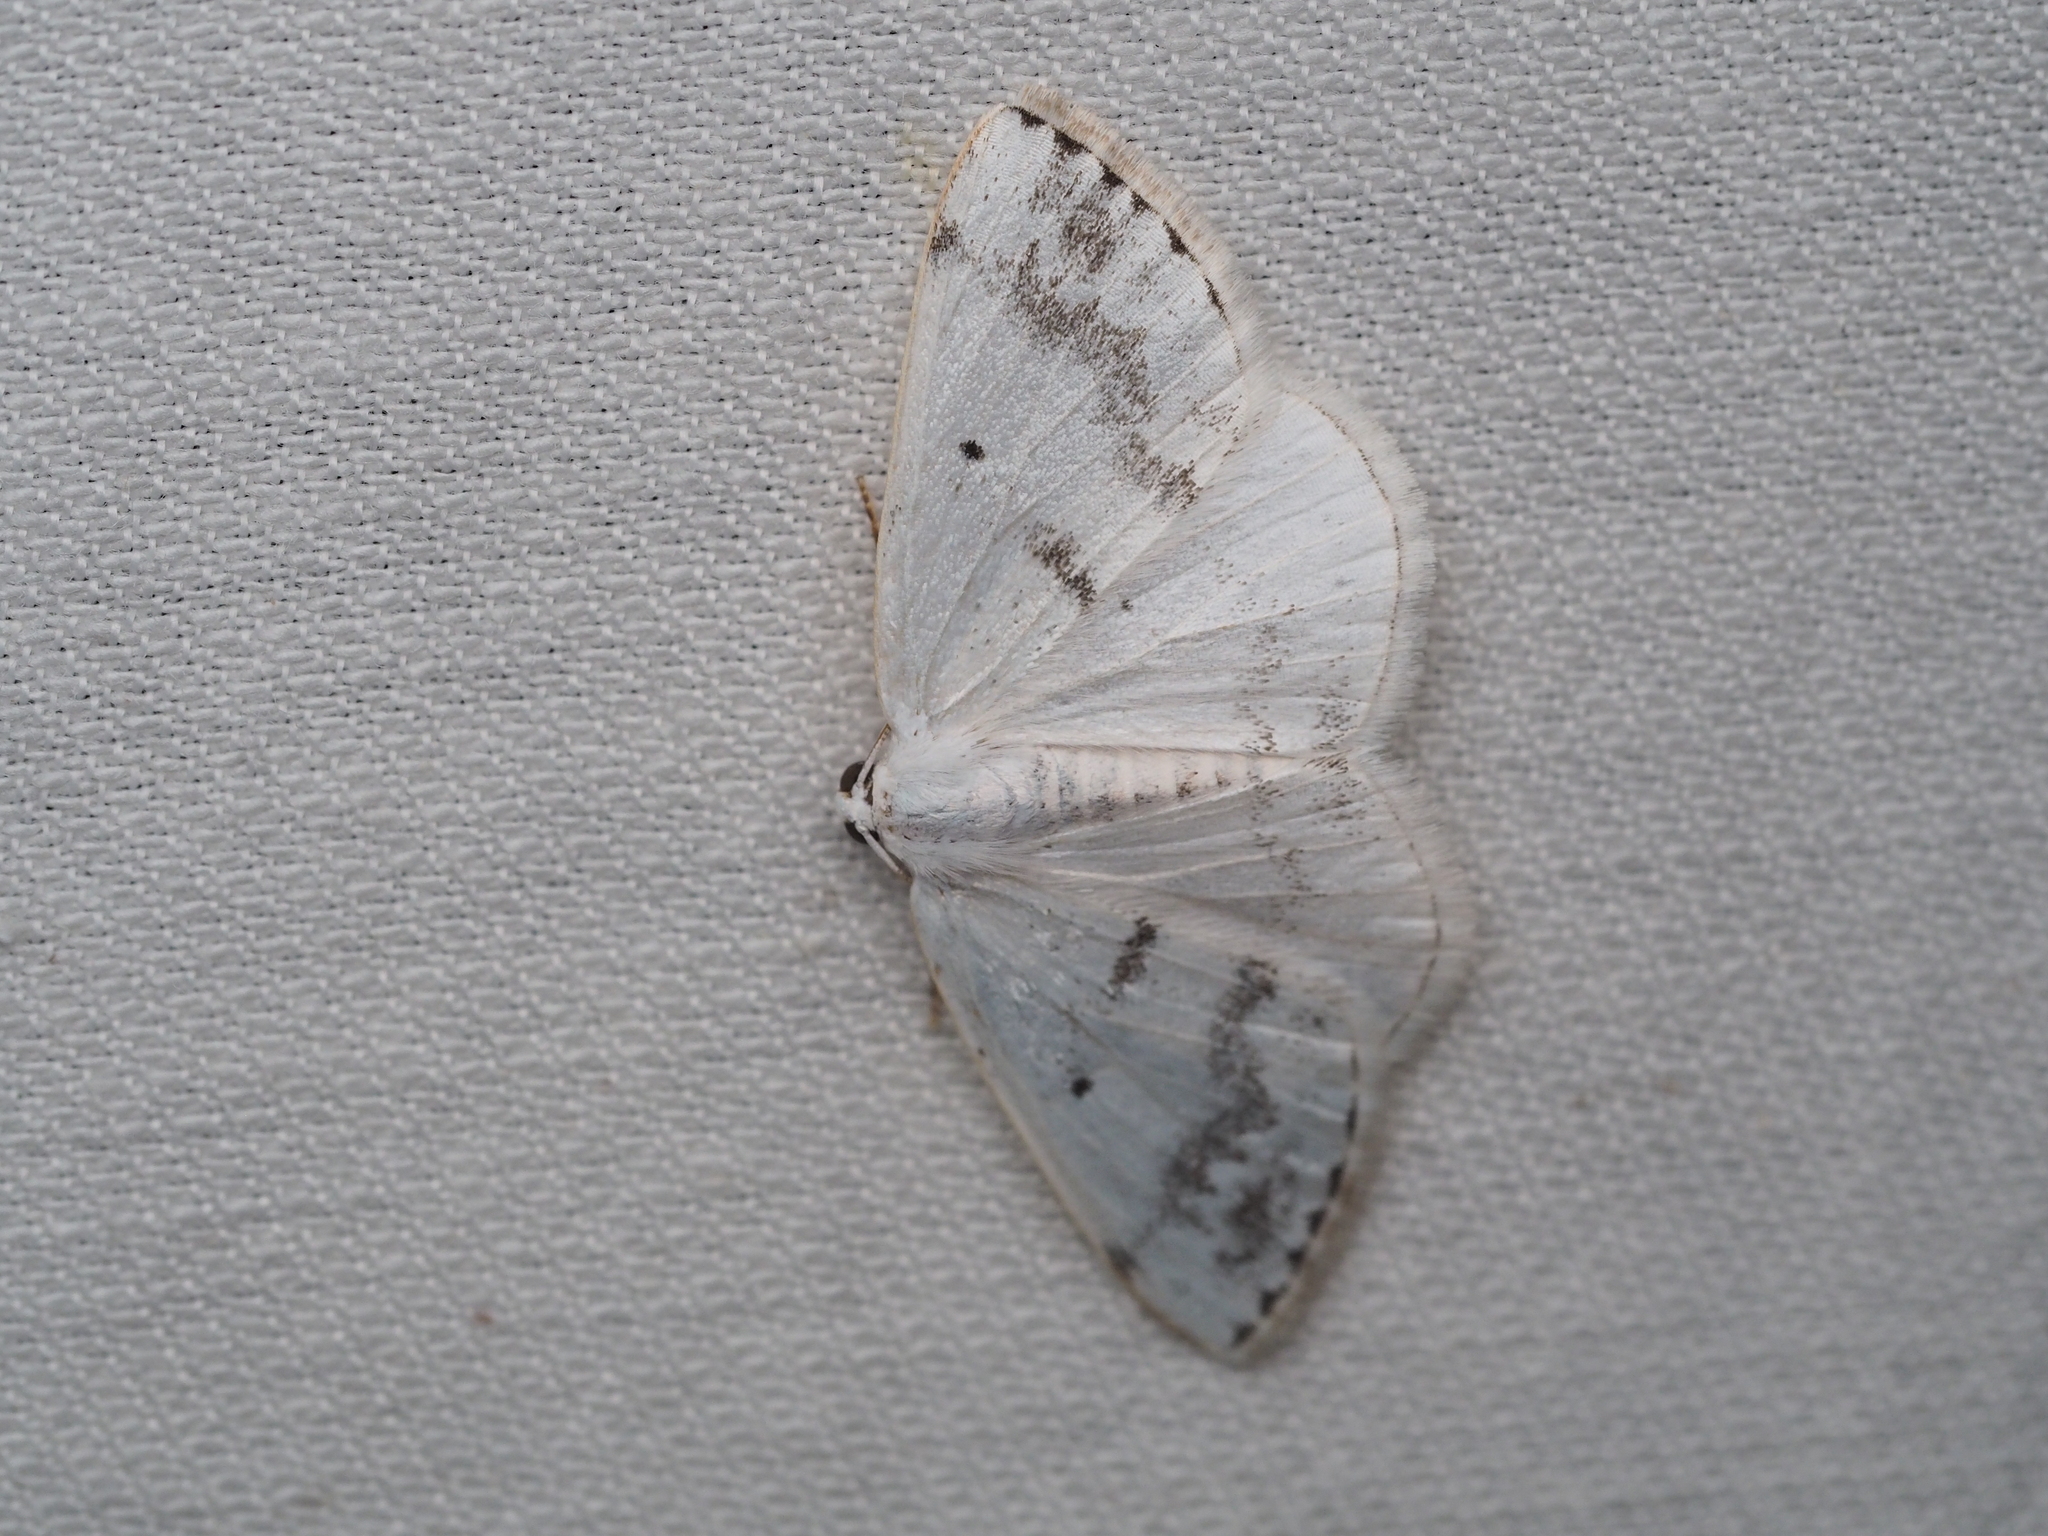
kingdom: Animalia
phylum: Arthropoda
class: Insecta
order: Lepidoptera
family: Geometridae
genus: Lomographa
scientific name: Lomographa temerata
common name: Clouded silver
